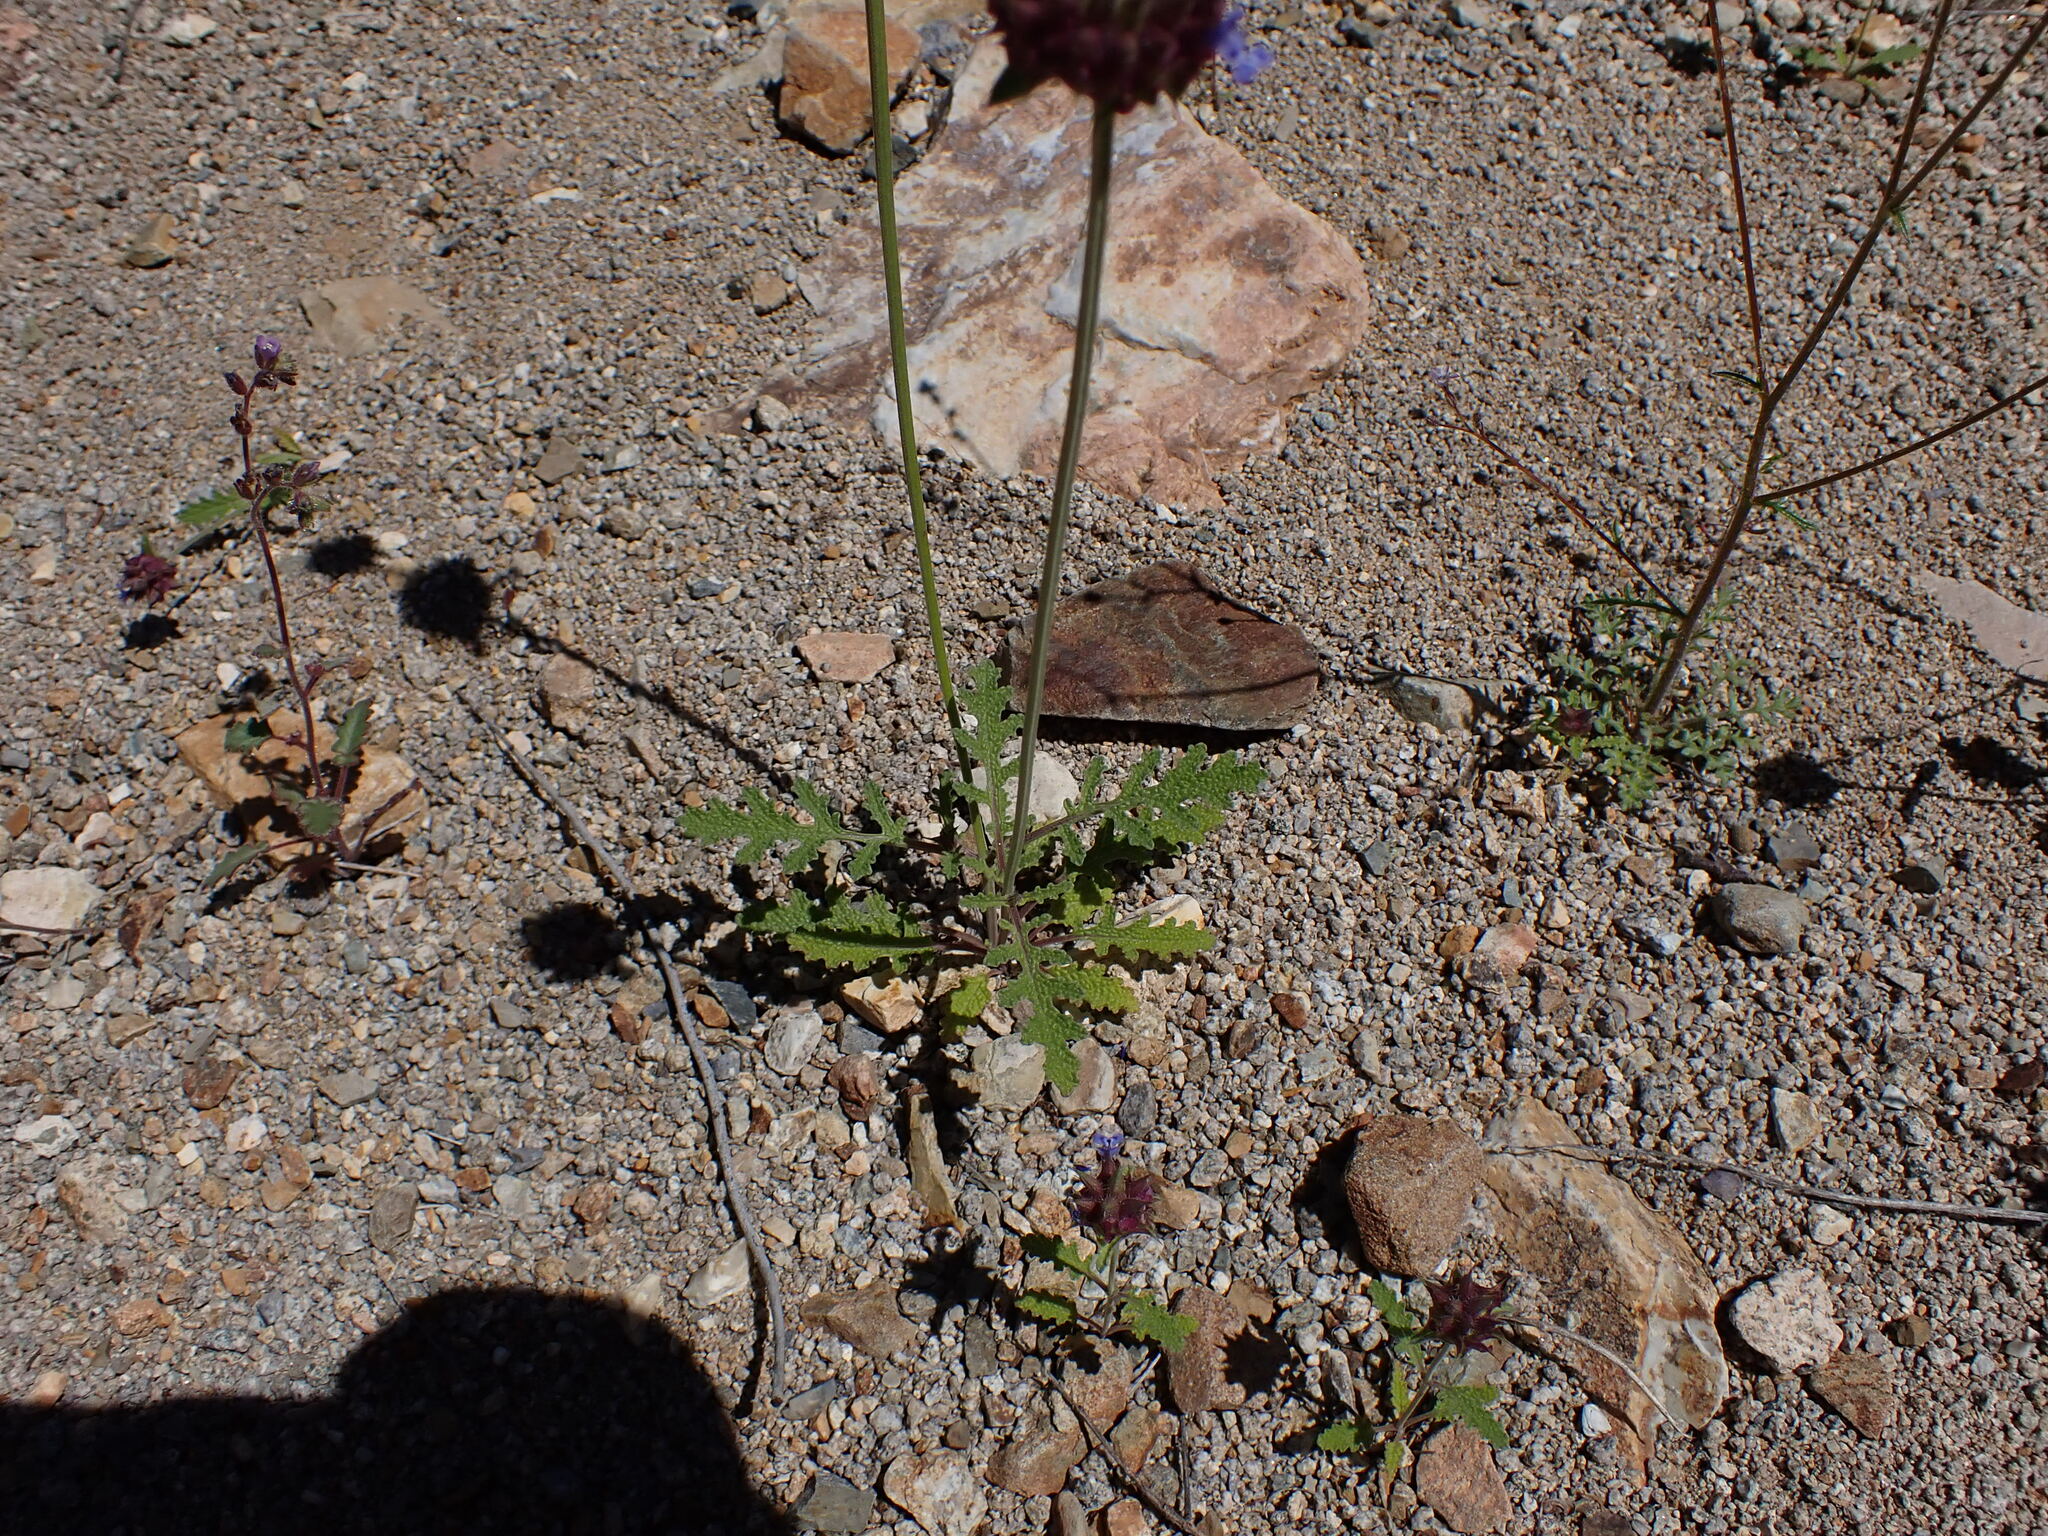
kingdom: Plantae
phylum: Tracheophyta
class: Magnoliopsida
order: Lamiales
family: Lamiaceae
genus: Salvia
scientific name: Salvia columbariae
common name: Chia
